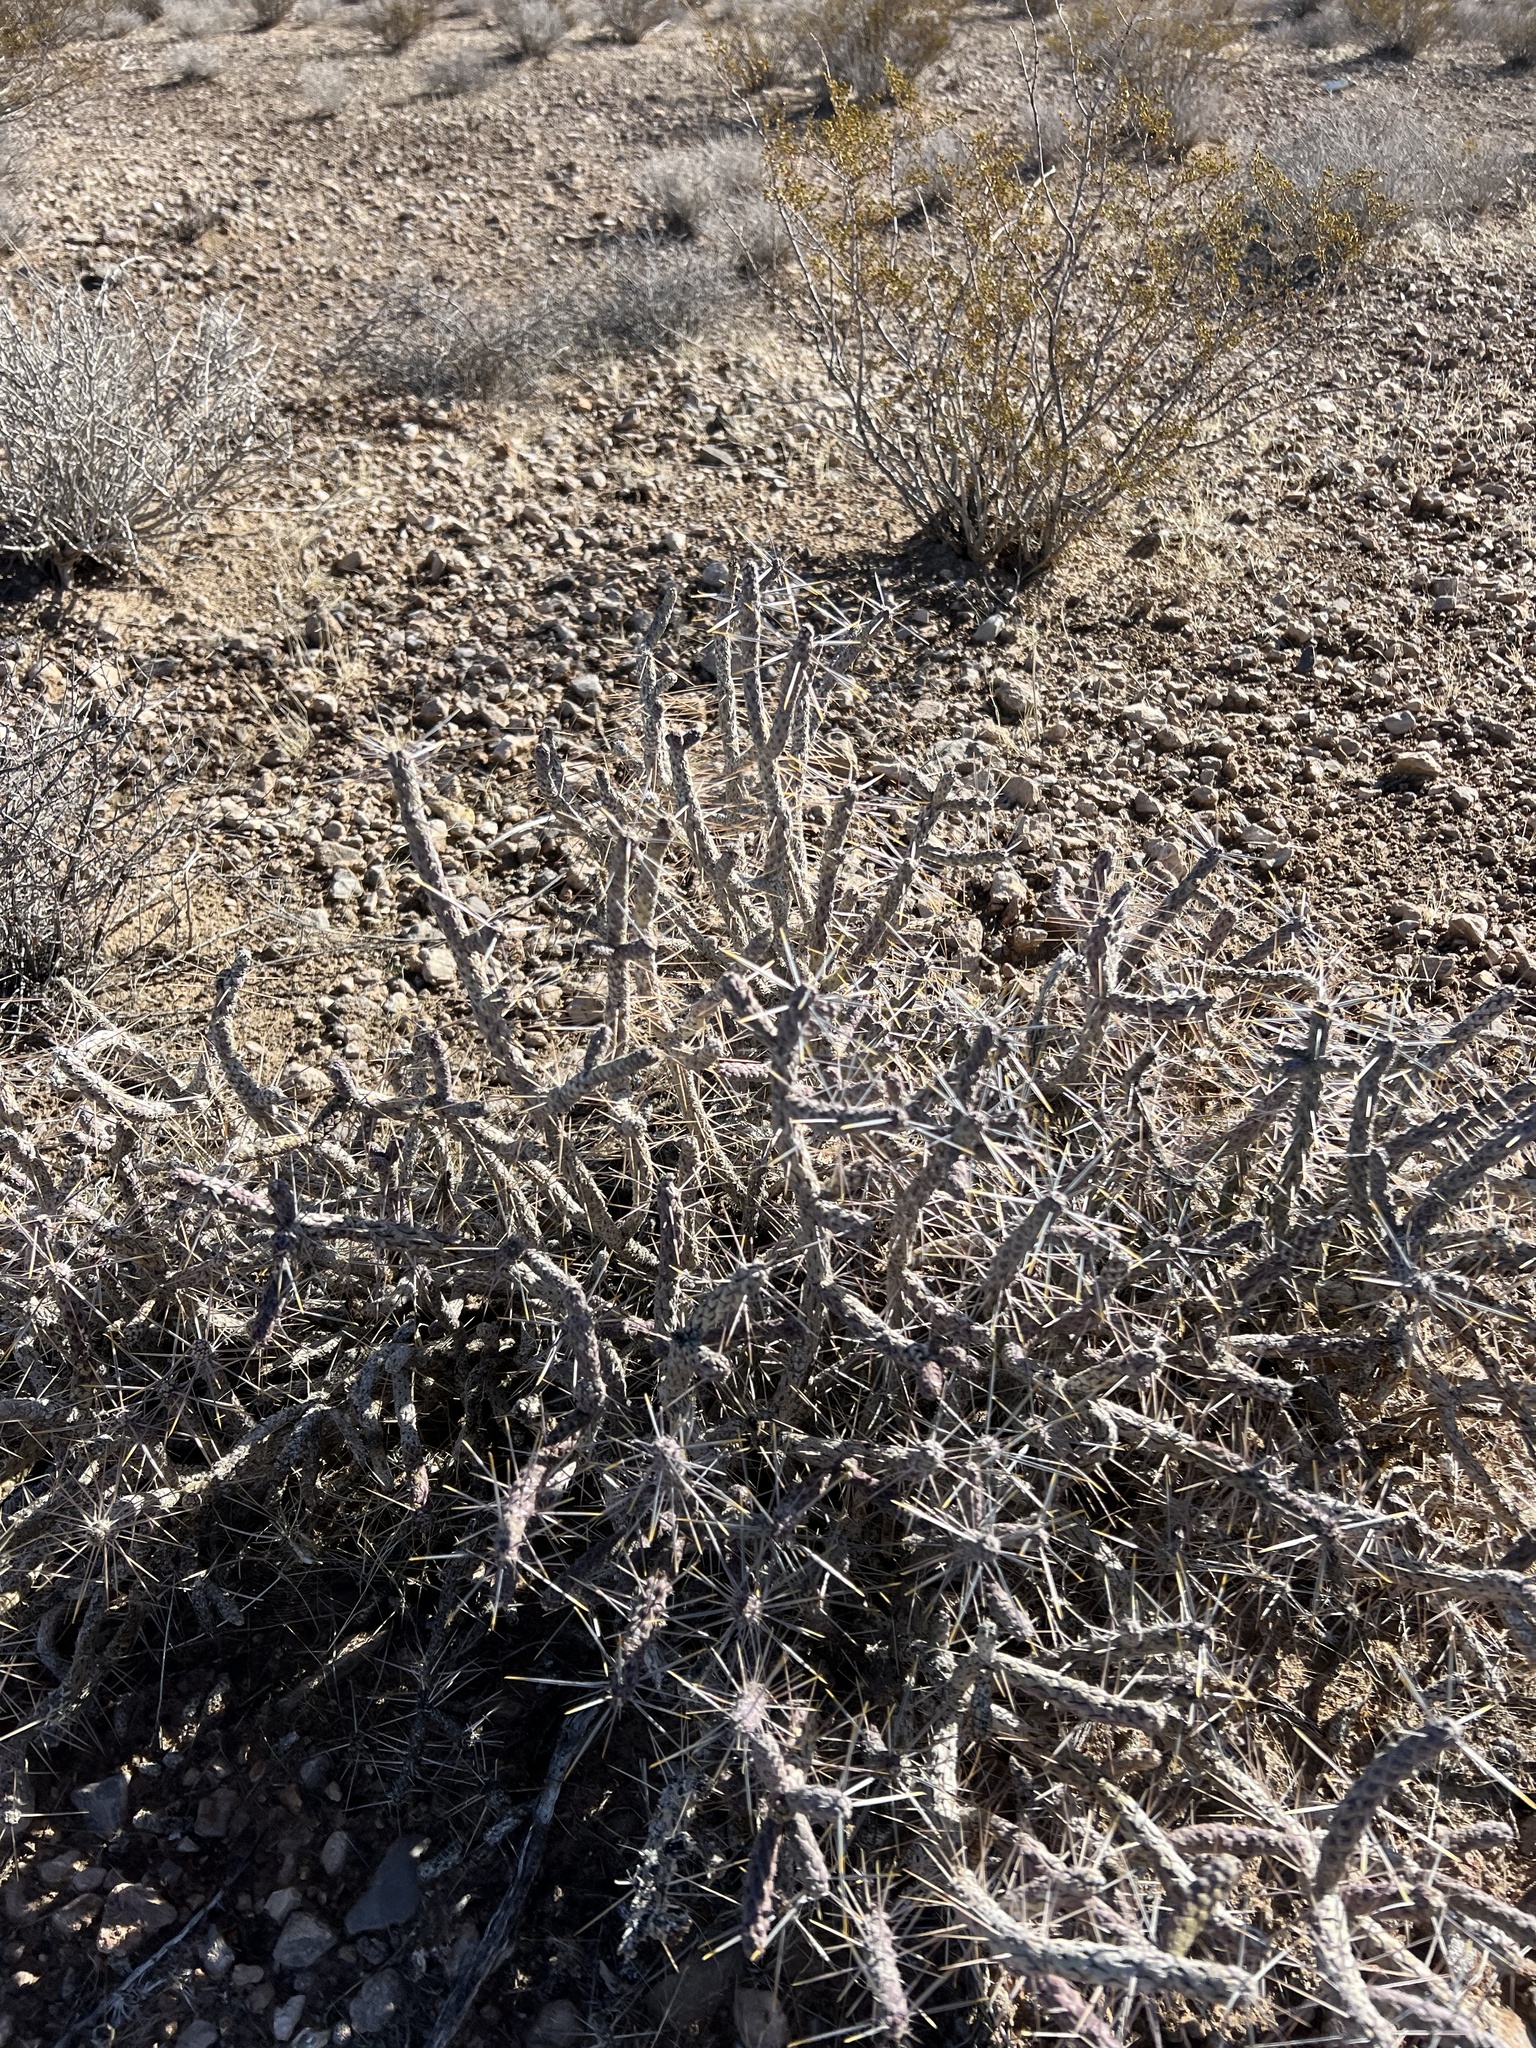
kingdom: Plantae
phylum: Tracheophyta
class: Magnoliopsida
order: Caryophyllales
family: Cactaceae
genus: Cylindropuntia
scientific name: Cylindropuntia ramosissima
